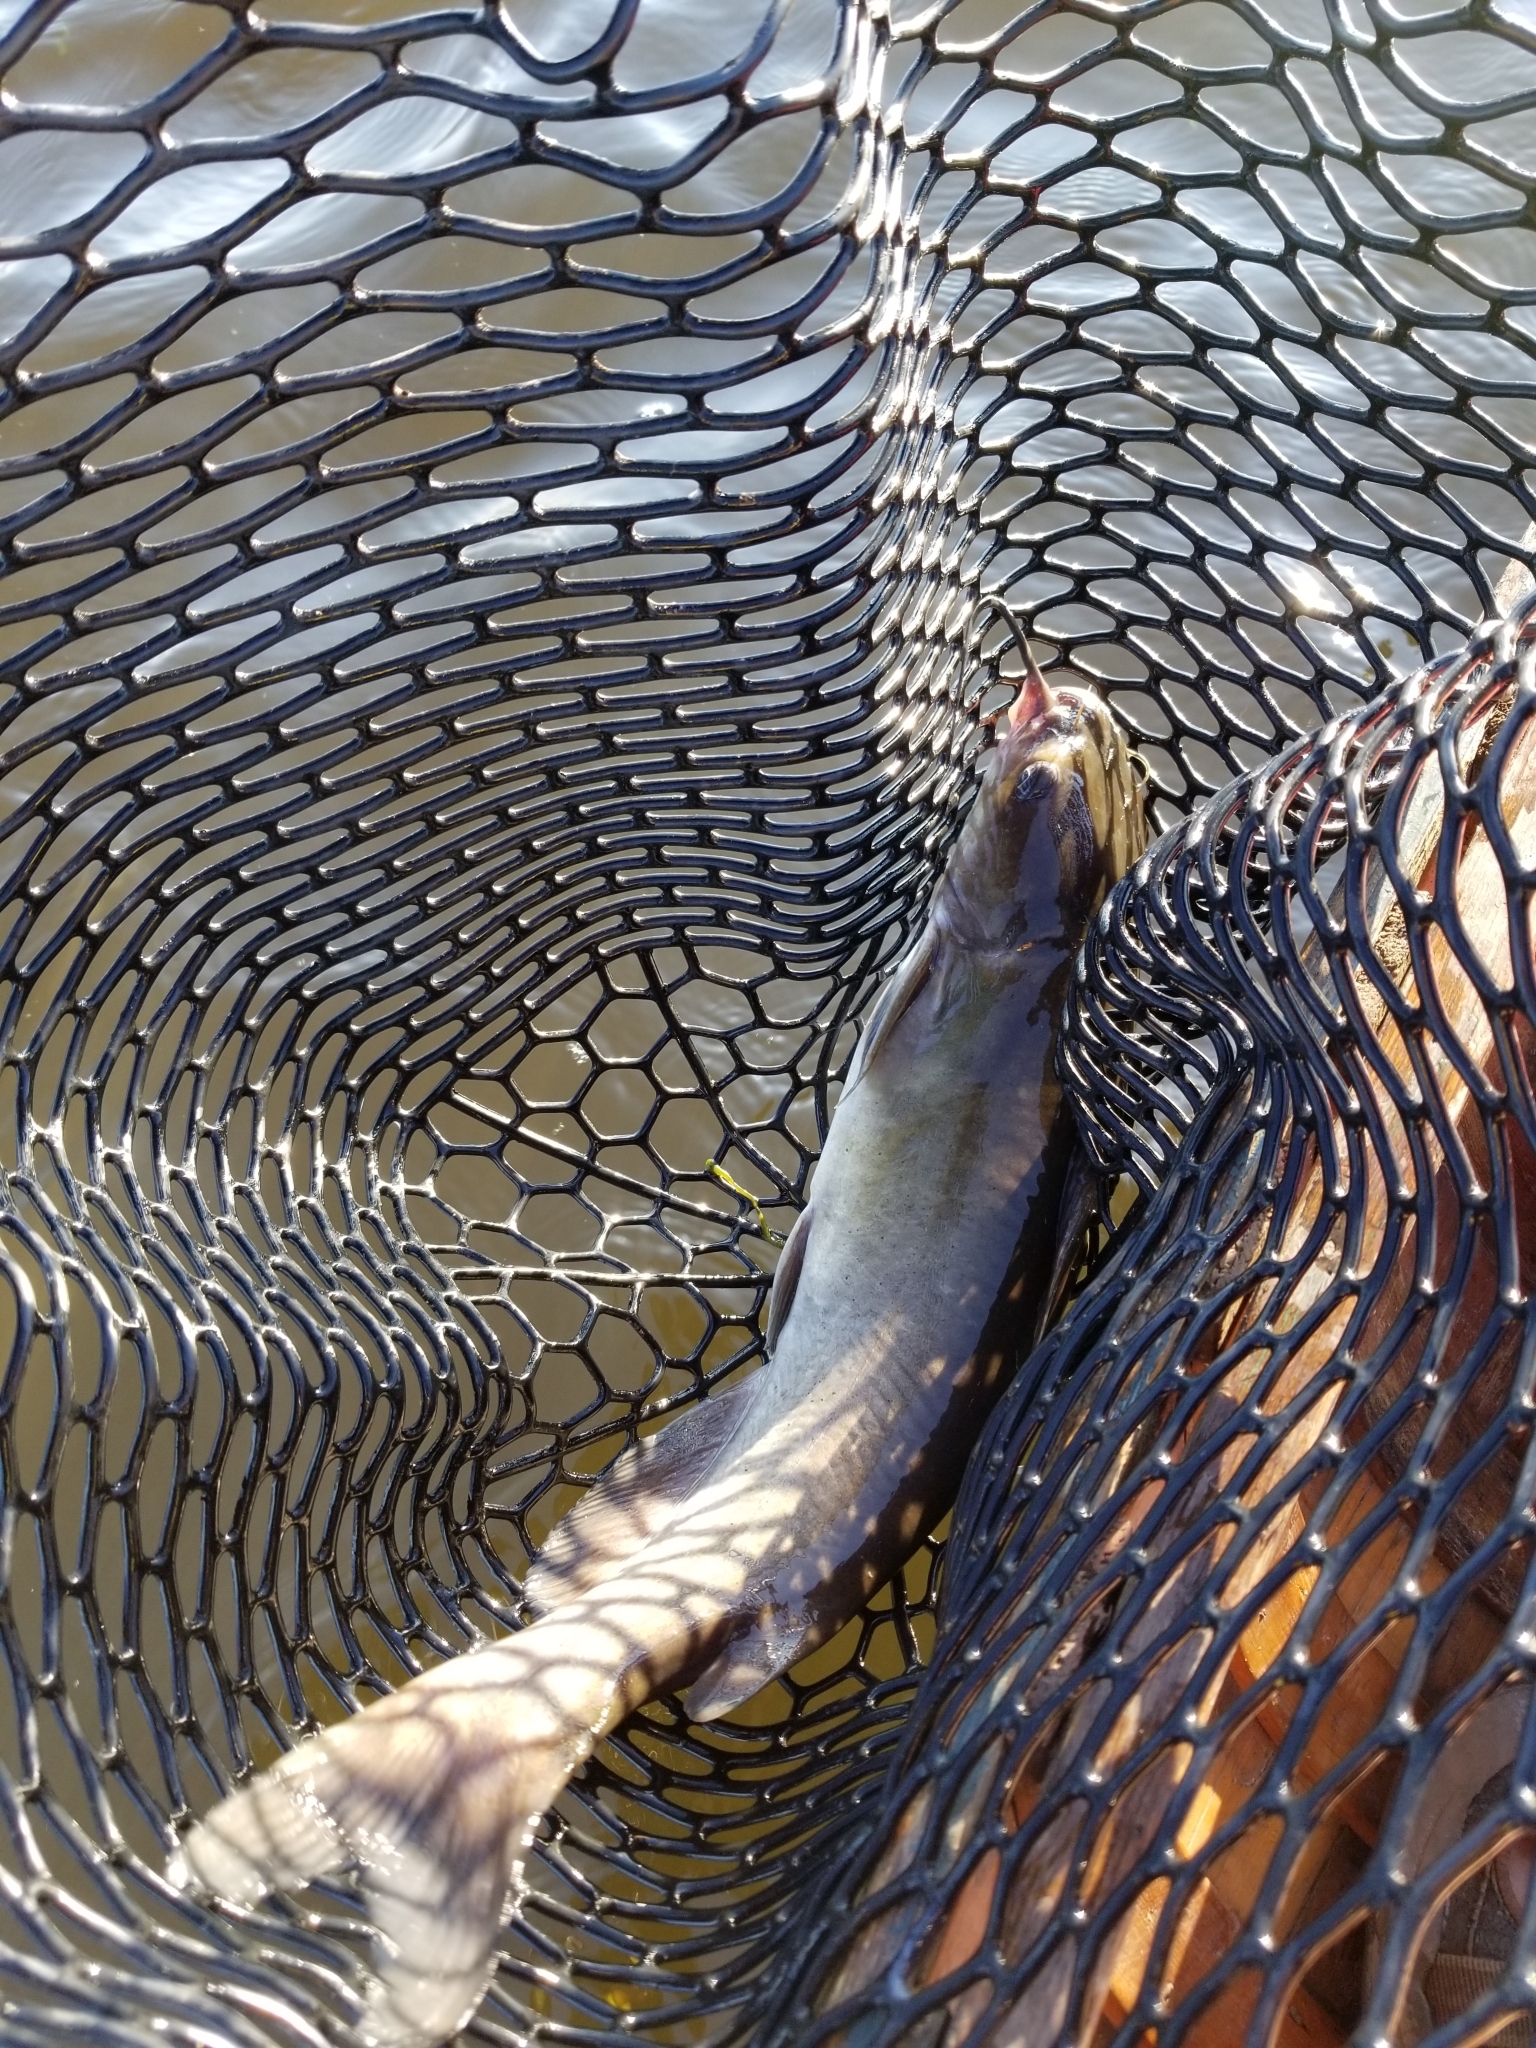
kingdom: Animalia
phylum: Chordata
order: Siluriformes
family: Ictaluridae
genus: Ictalurus
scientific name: Ictalurus punctatus
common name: Channel catfish
